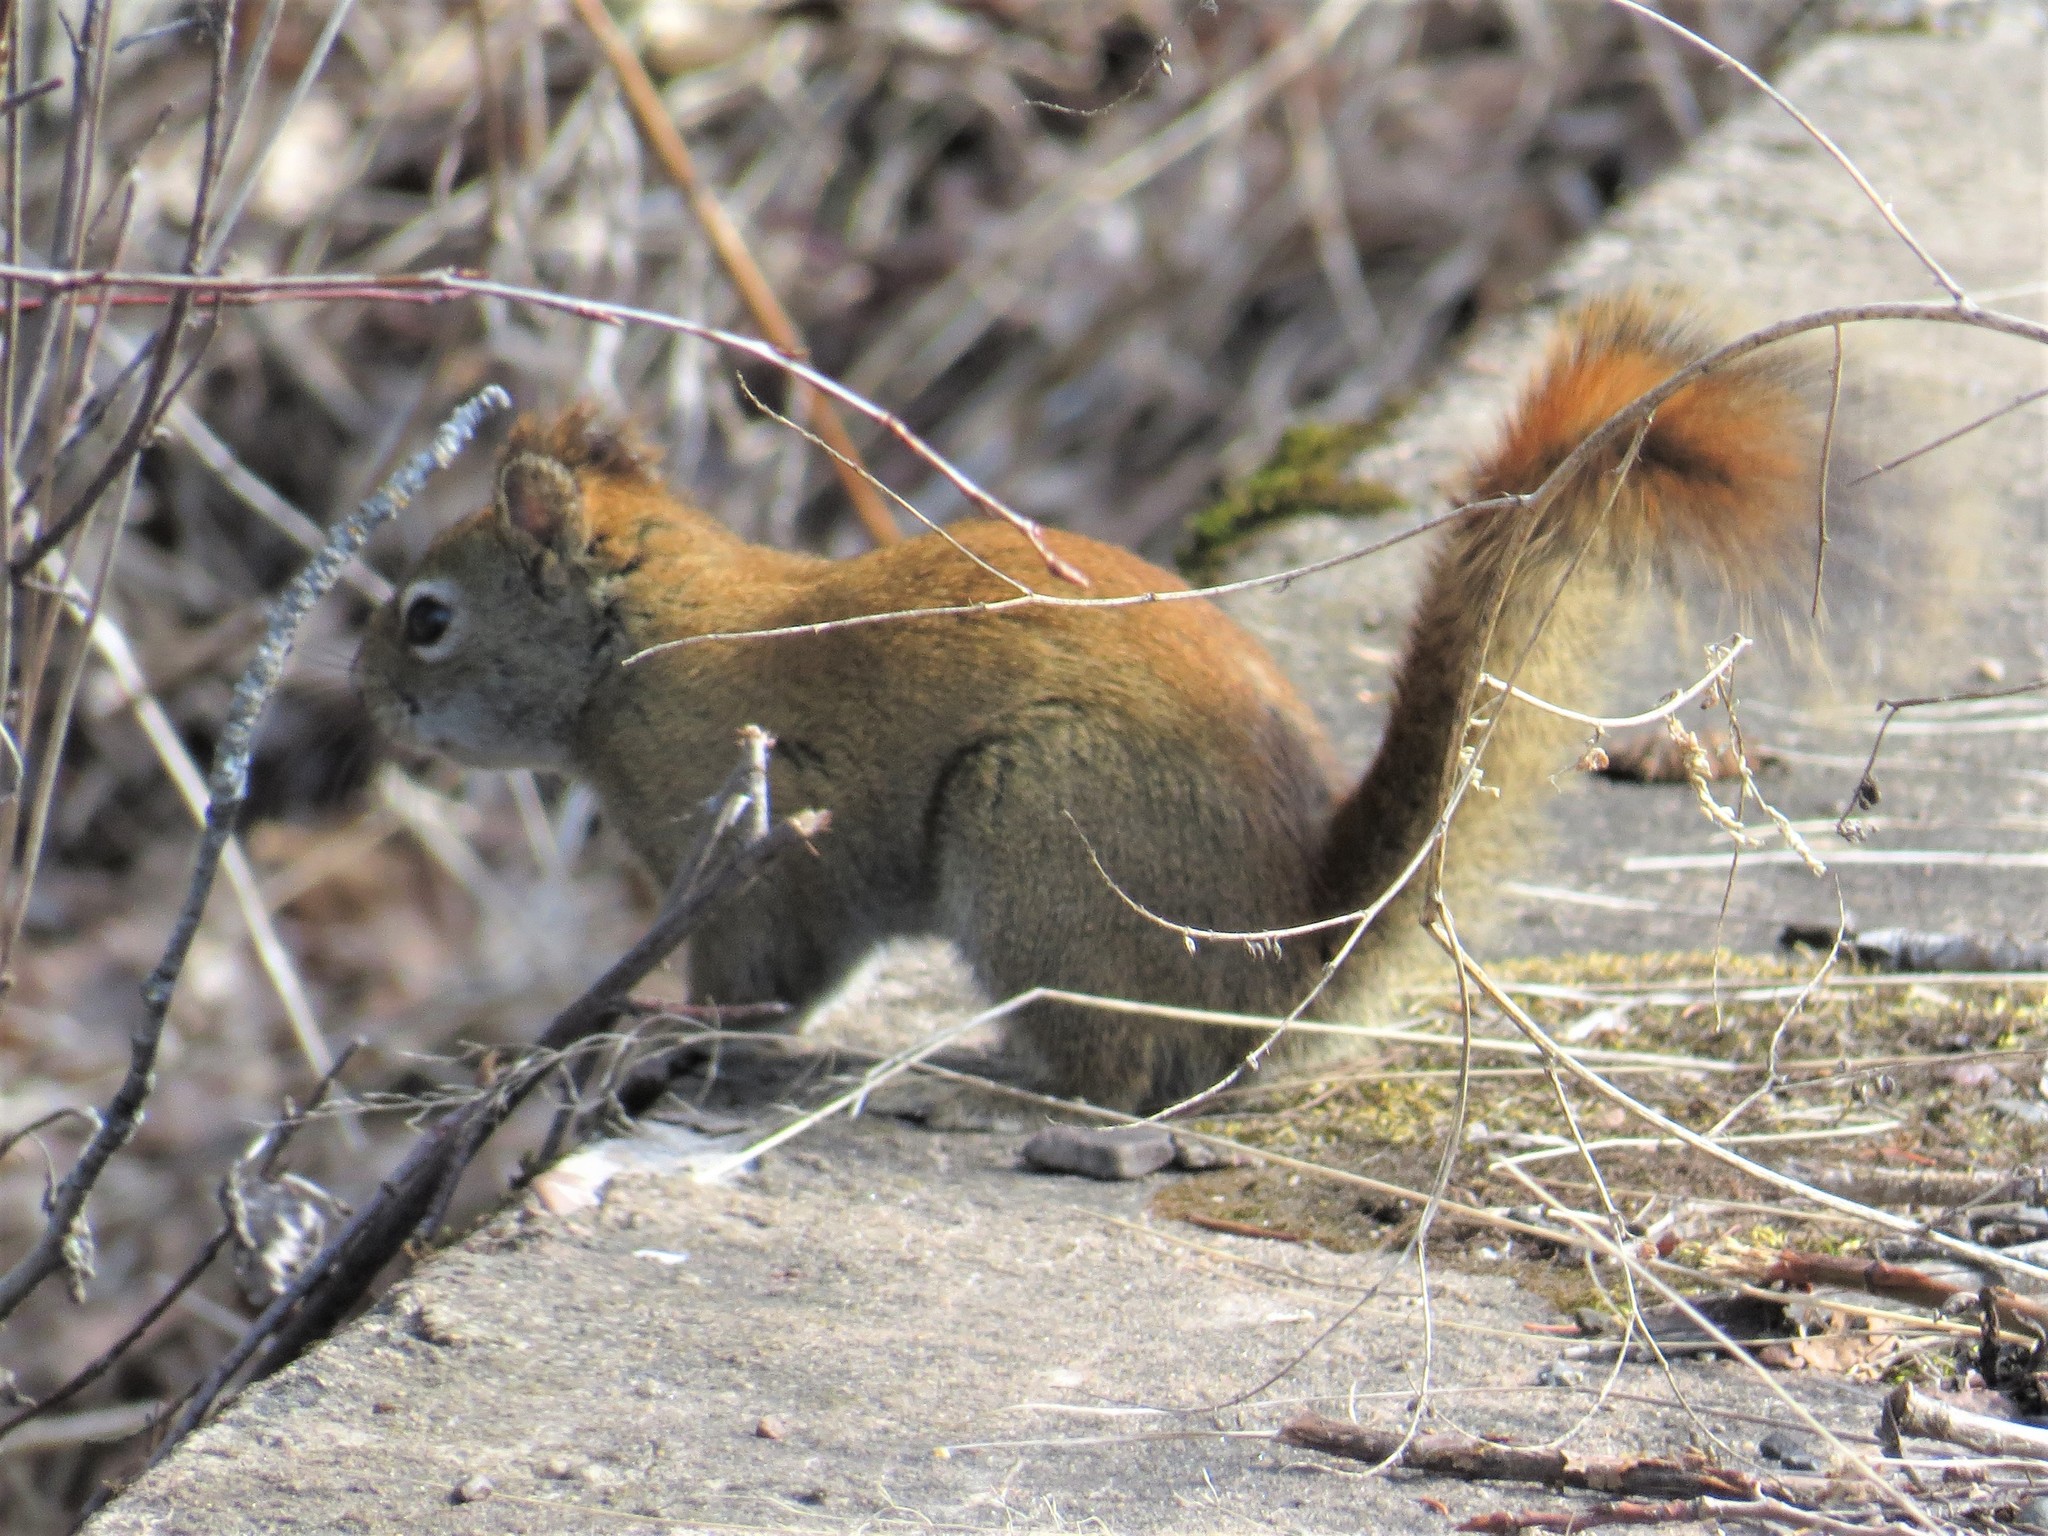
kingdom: Animalia
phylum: Chordata
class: Mammalia
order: Rodentia
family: Sciuridae
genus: Tamiasciurus
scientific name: Tamiasciurus hudsonicus
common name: Red squirrel
